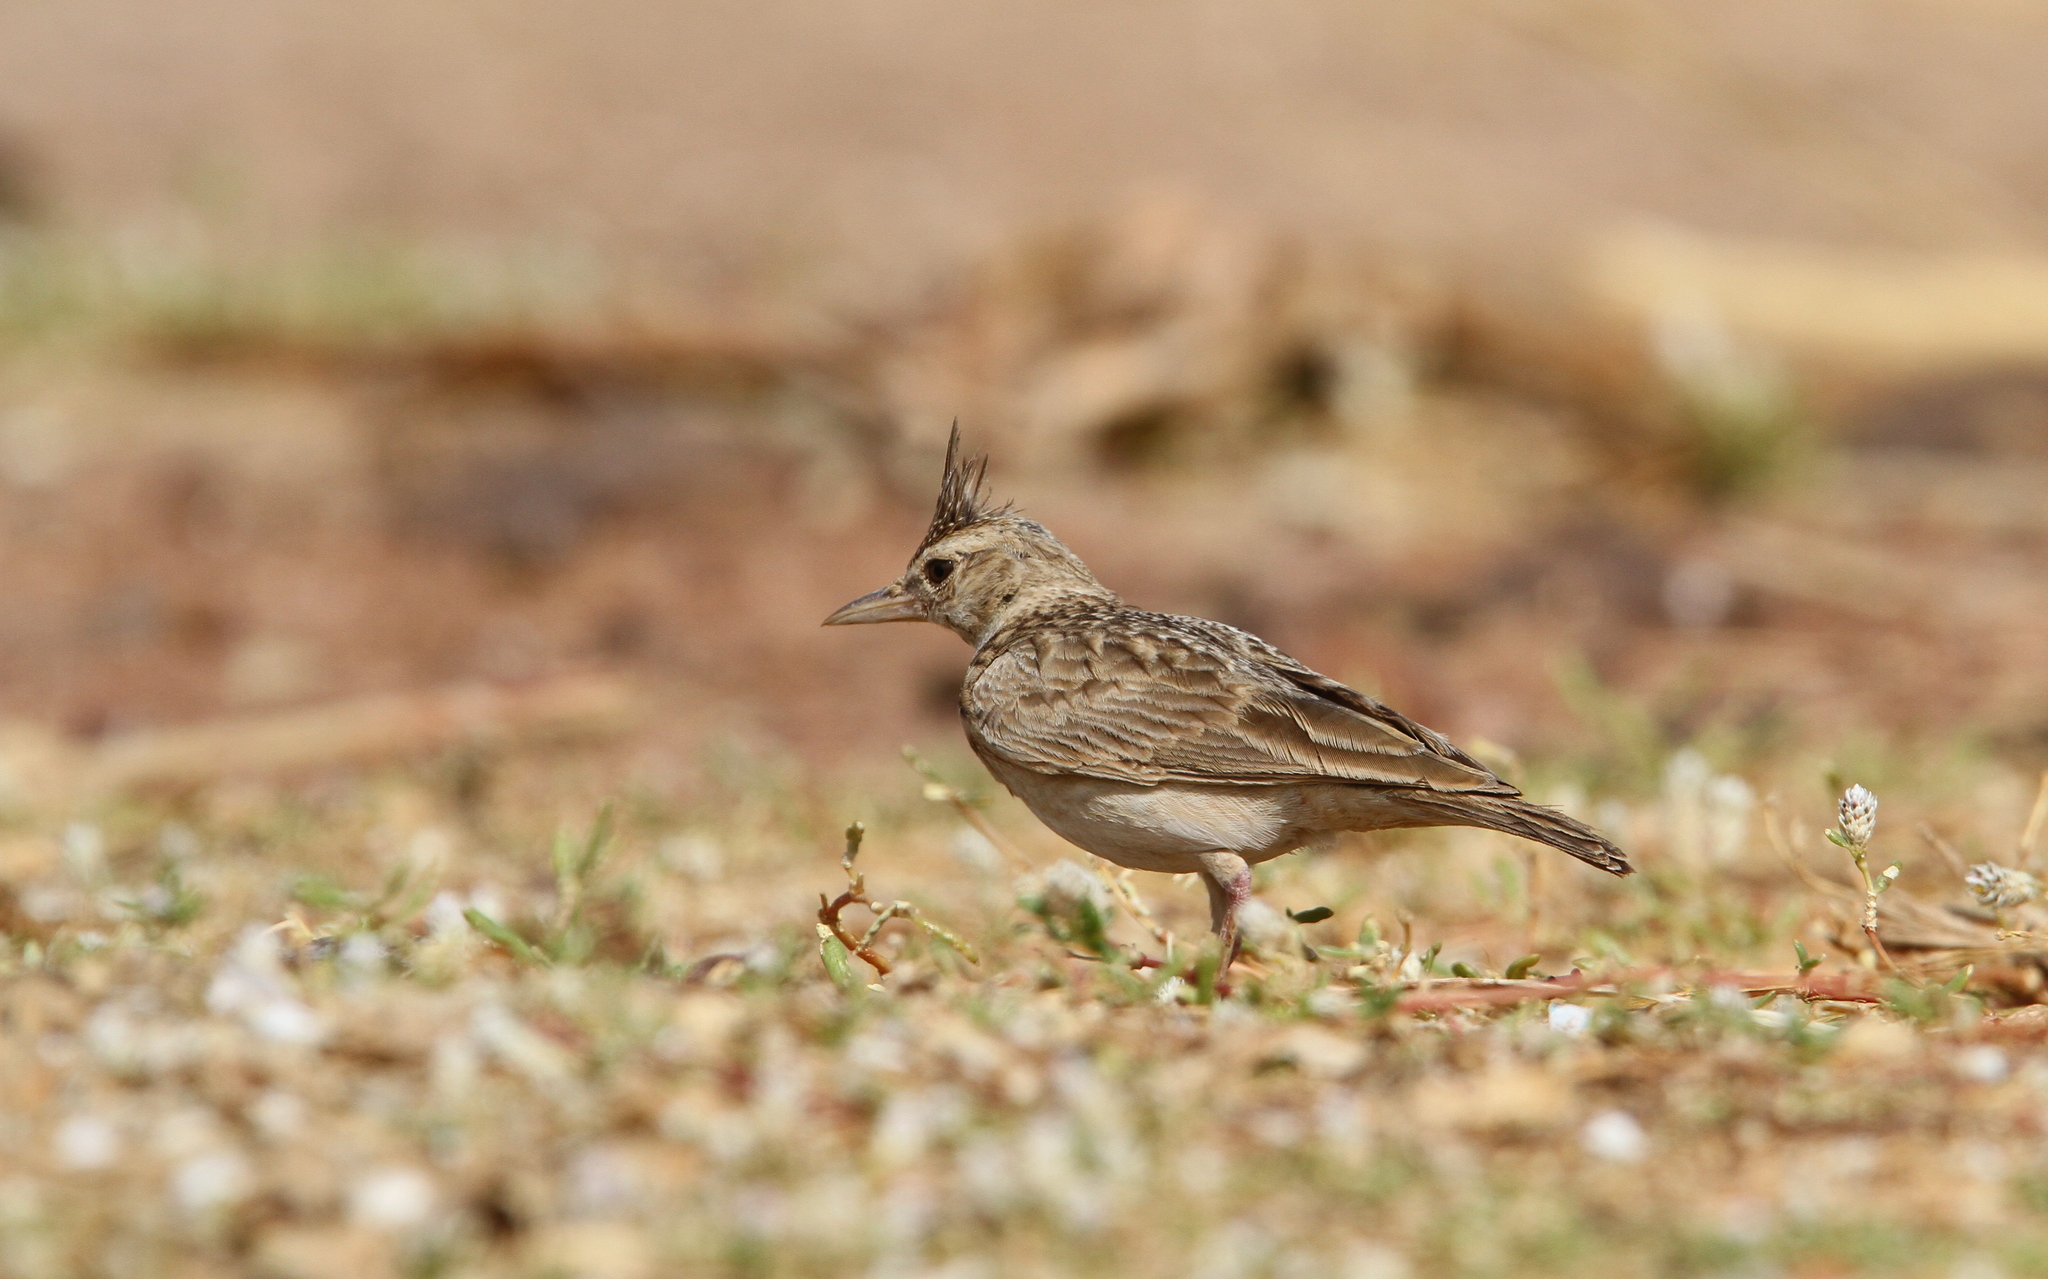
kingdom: Animalia
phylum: Chordata
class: Aves
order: Passeriformes
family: Alaudidae
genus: Galerida
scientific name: Galerida cristata
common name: Crested lark
